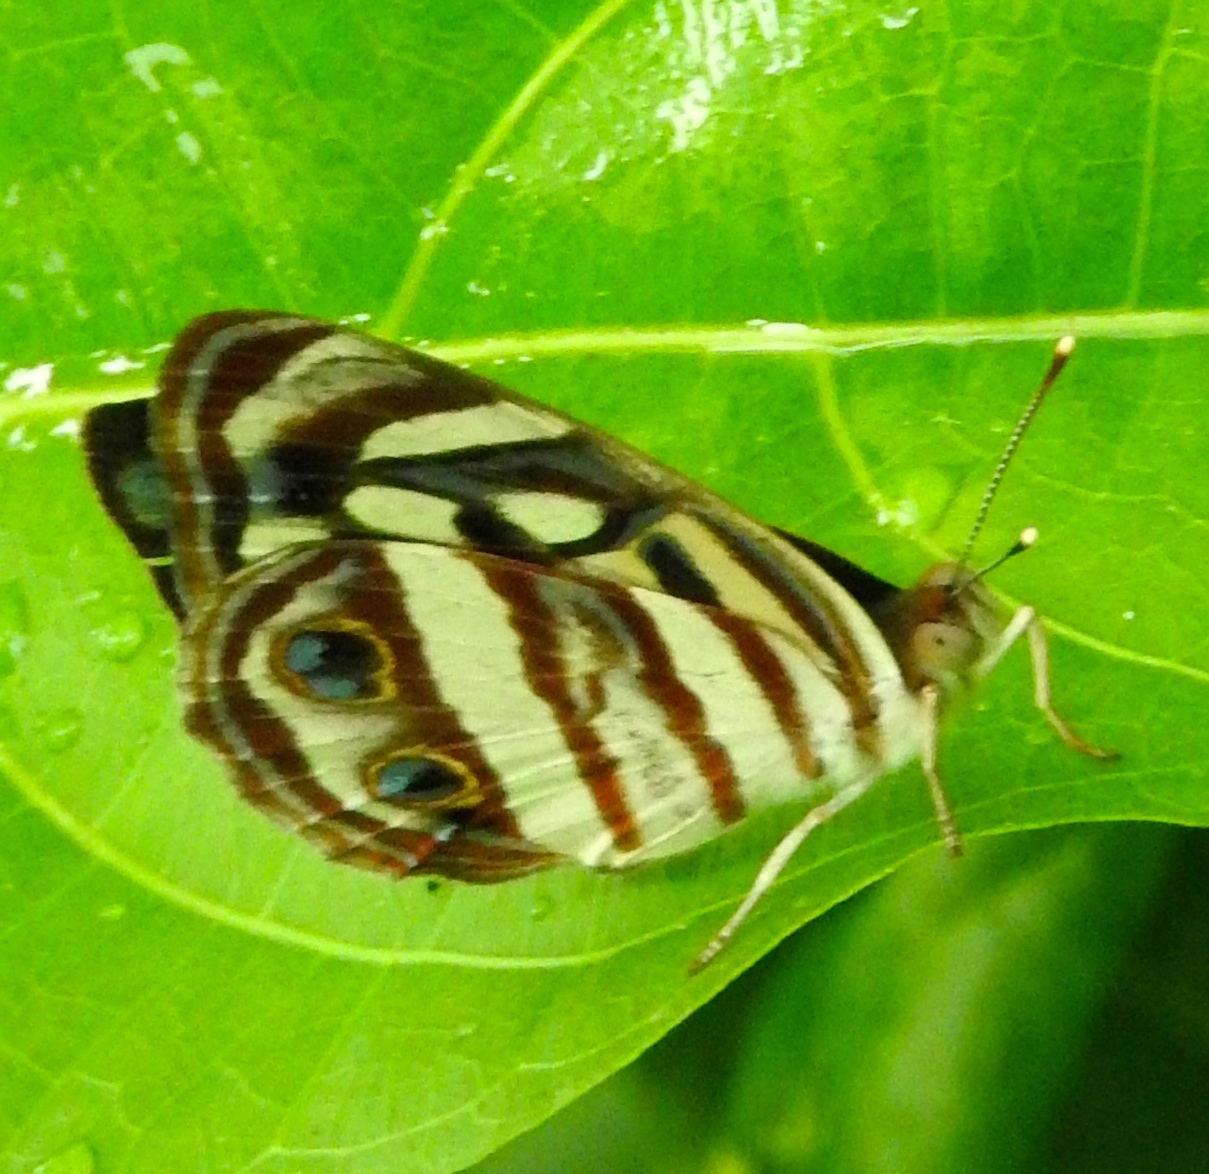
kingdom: Animalia
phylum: Arthropoda
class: Insecta
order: Lepidoptera
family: Nymphalidae
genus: Dynamine
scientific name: Dynamine mylitta
